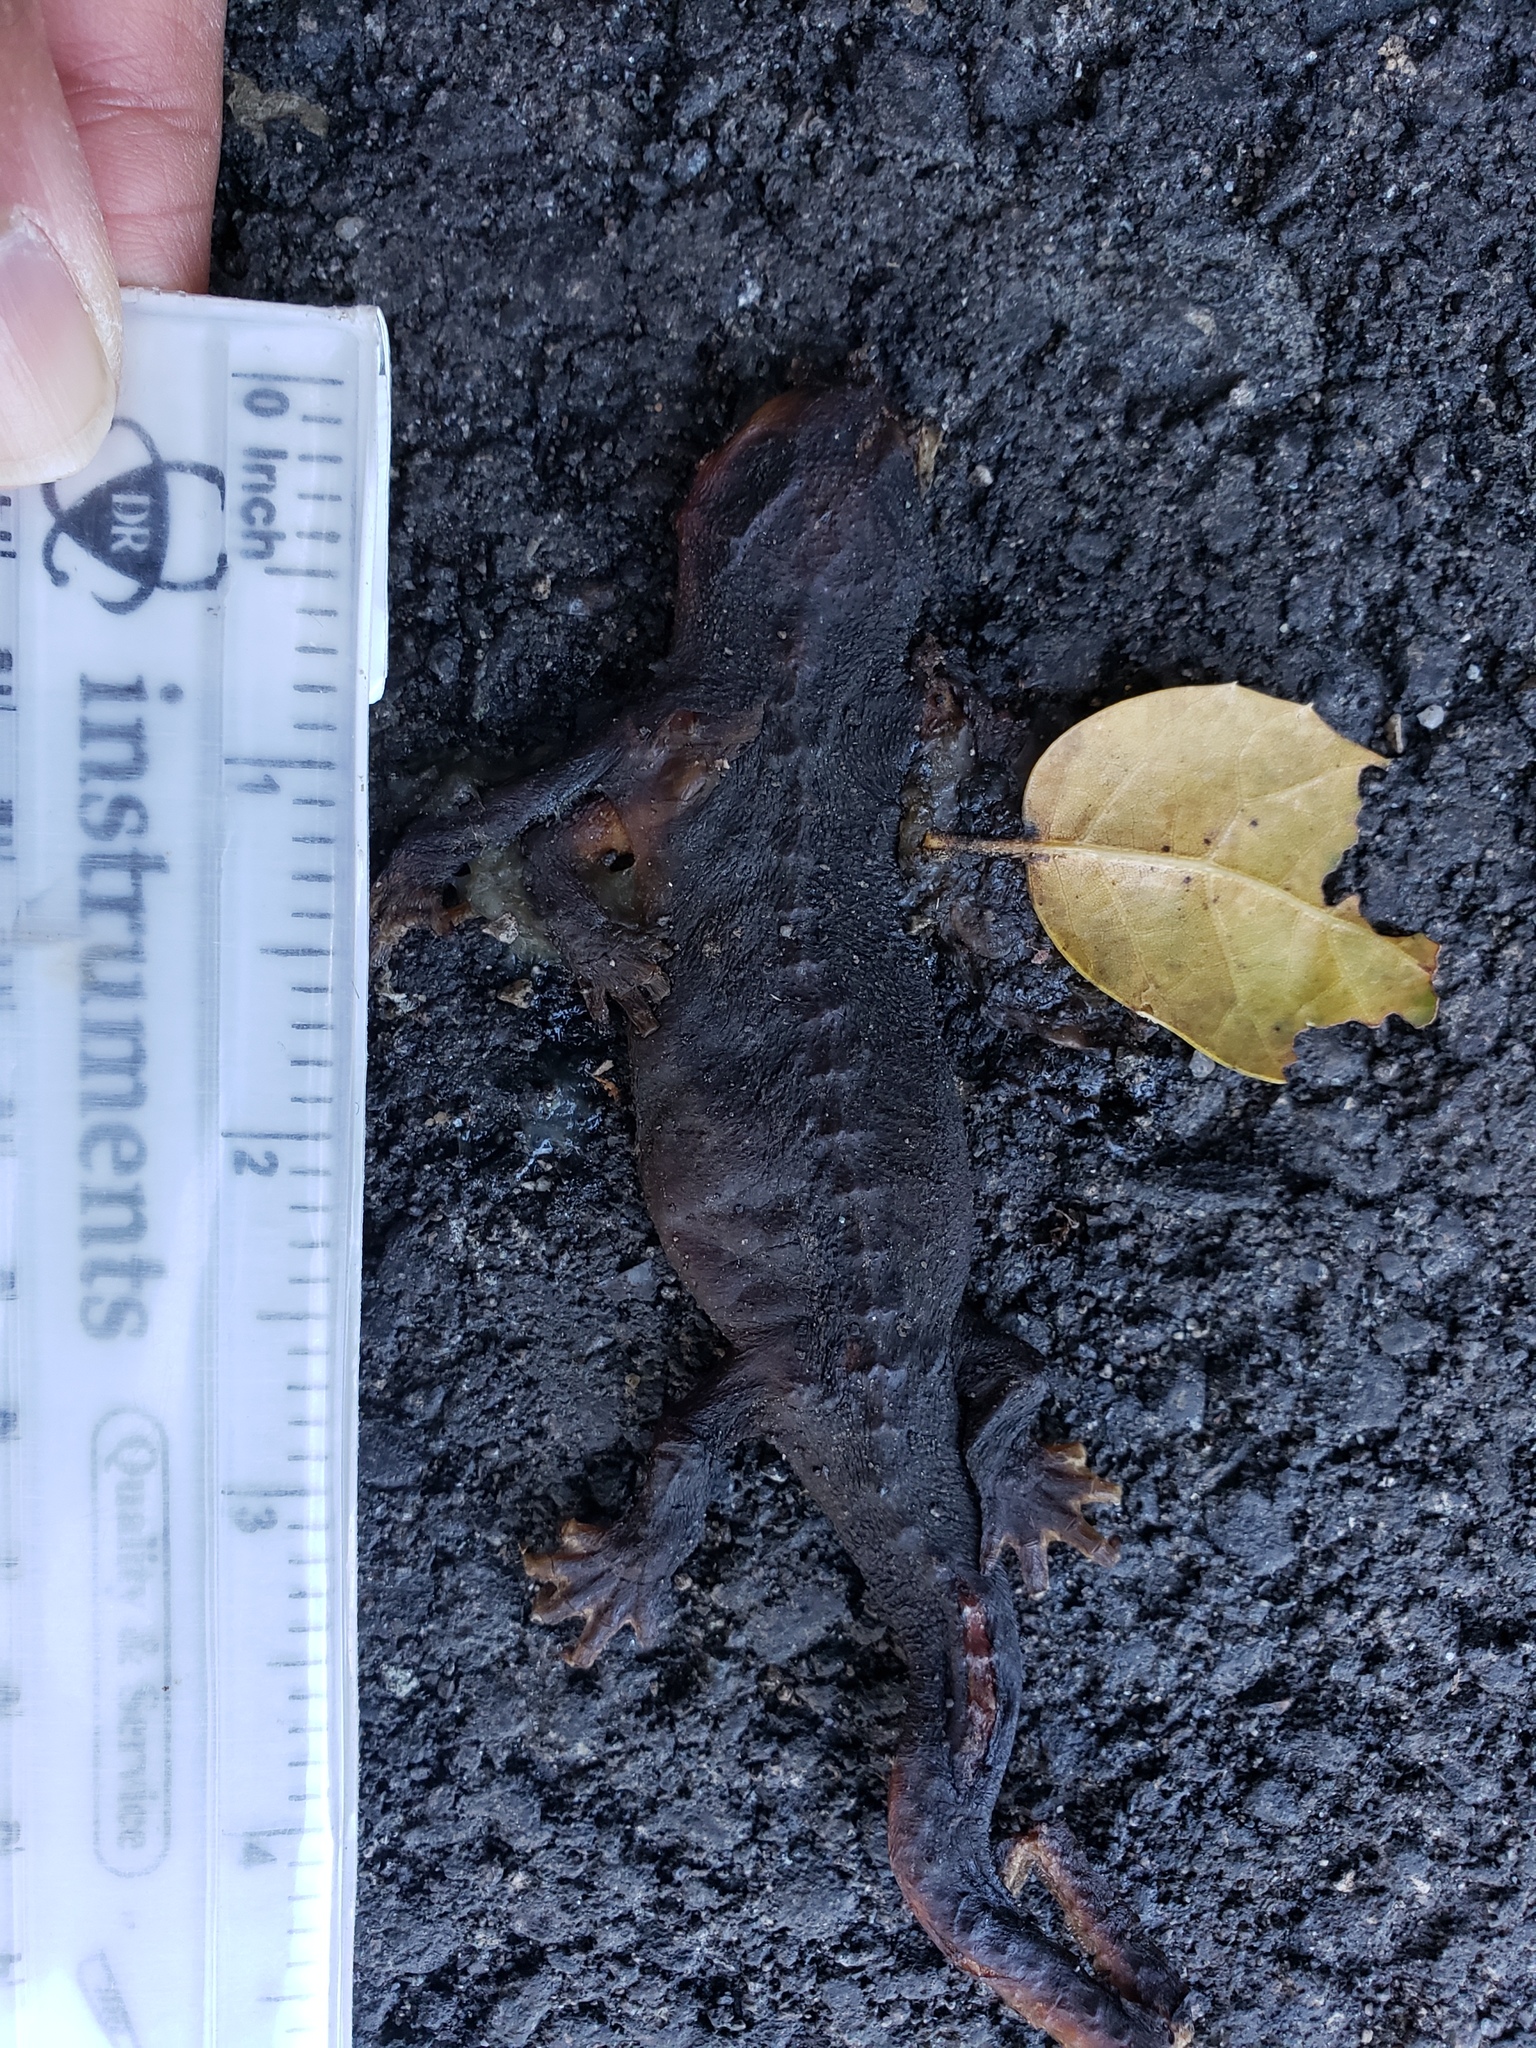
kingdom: Animalia
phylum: Chordata
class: Amphibia
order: Caudata
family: Salamandridae
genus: Taricha
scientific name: Taricha
